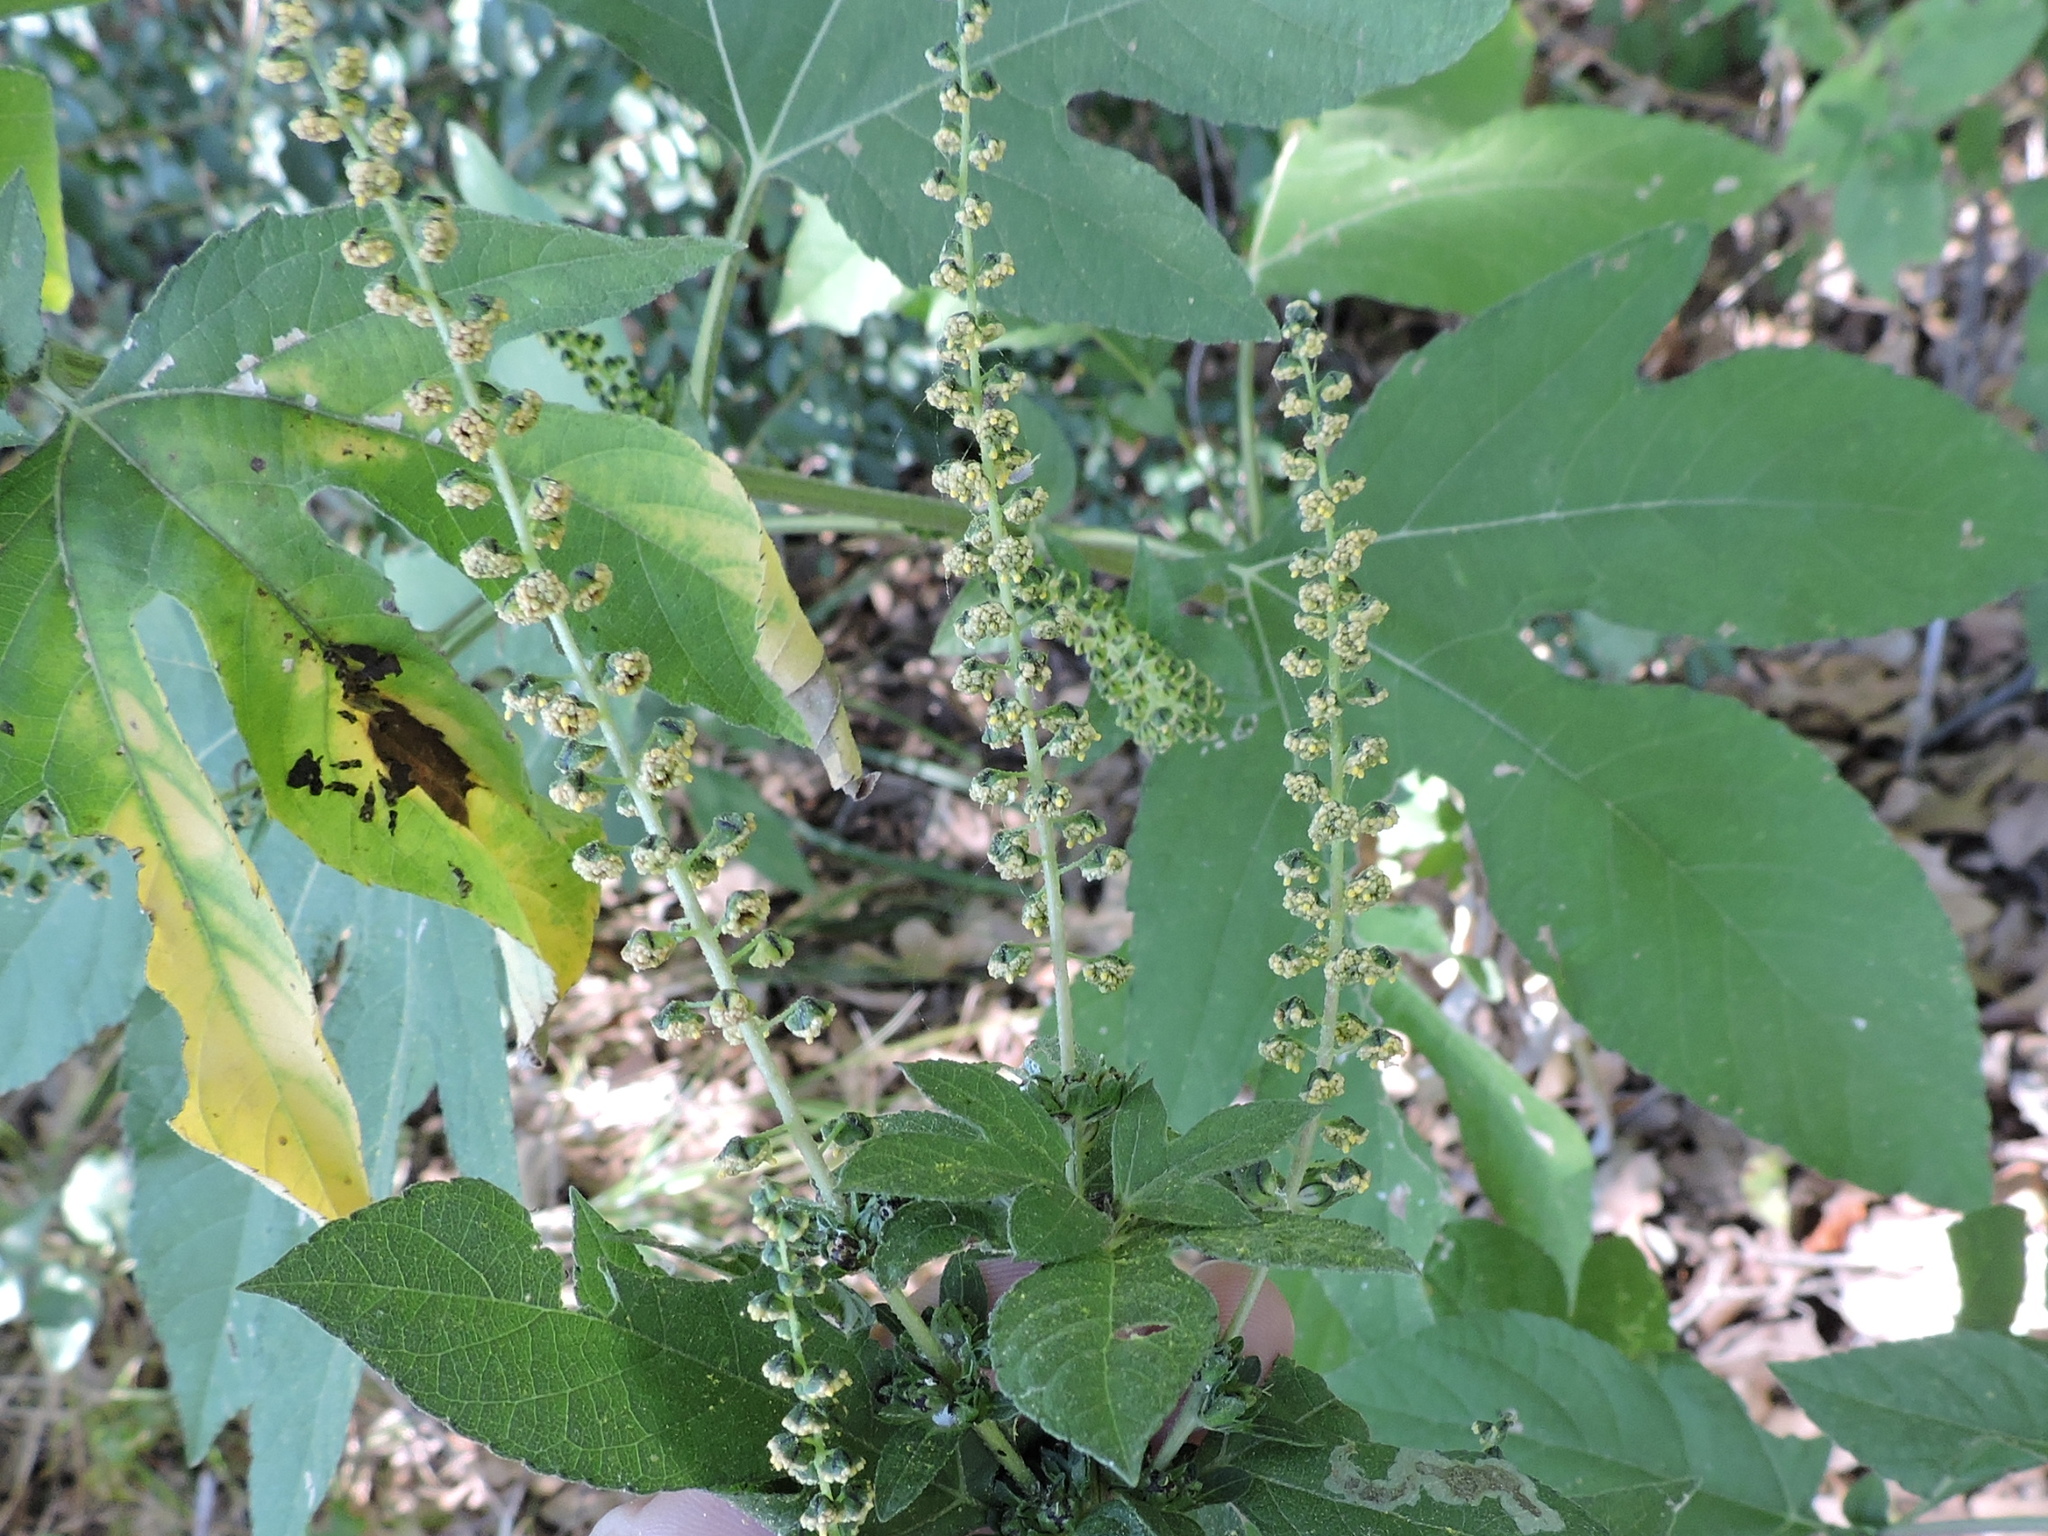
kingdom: Plantae
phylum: Tracheophyta
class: Magnoliopsida
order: Asterales
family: Asteraceae
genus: Ambrosia
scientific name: Ambrosia trifida
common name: Giant ragweed
